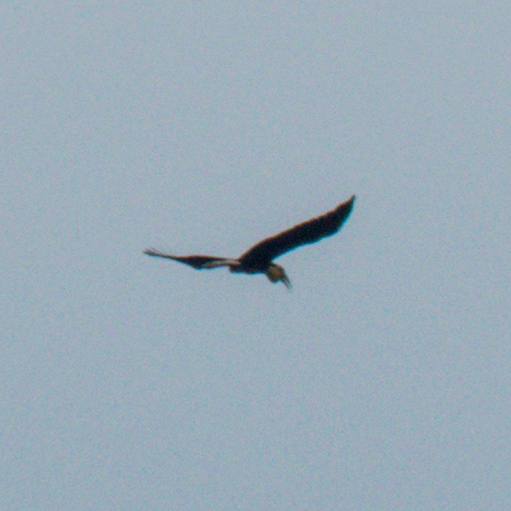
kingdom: Animalia
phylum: Chordata
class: Aves
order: Bucerotiformes
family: Bucerotidae
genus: Rhyticeros
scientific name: Rhyticeros undulatus
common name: Wreathed hornbill
